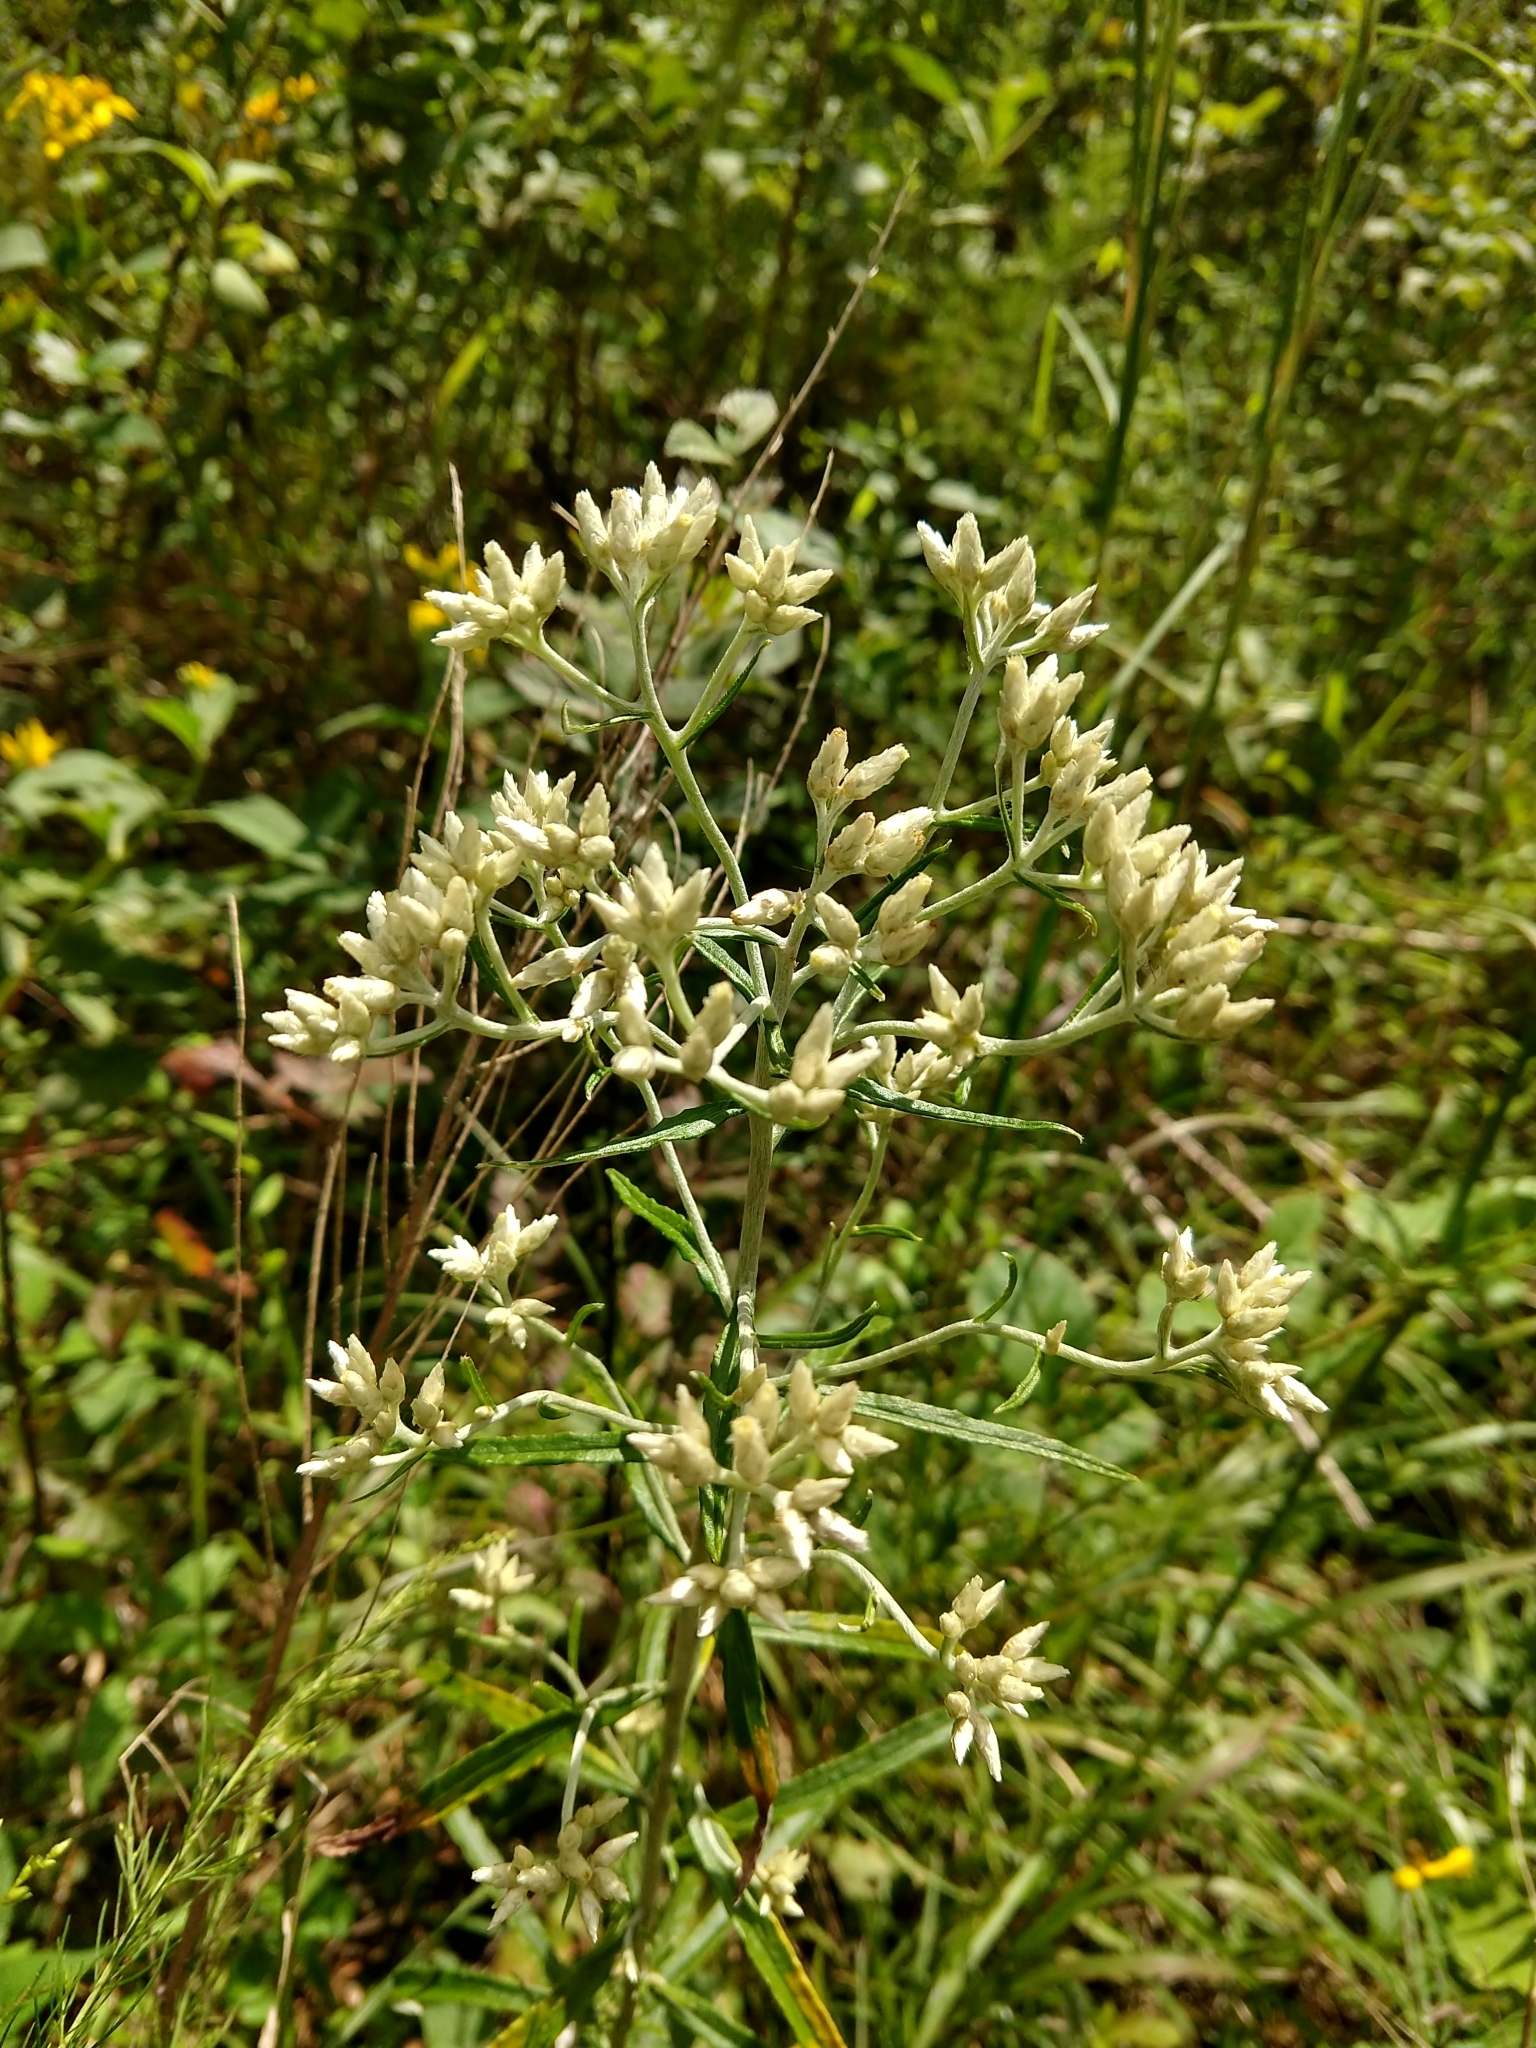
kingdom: Plantae
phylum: Tracheophyta
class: Magnoliopsida
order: Asterales
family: Asteraceae
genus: Pseudognaphalium
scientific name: Pseudognaphalium obtusifolium
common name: Eastern rabbit-tobacco
